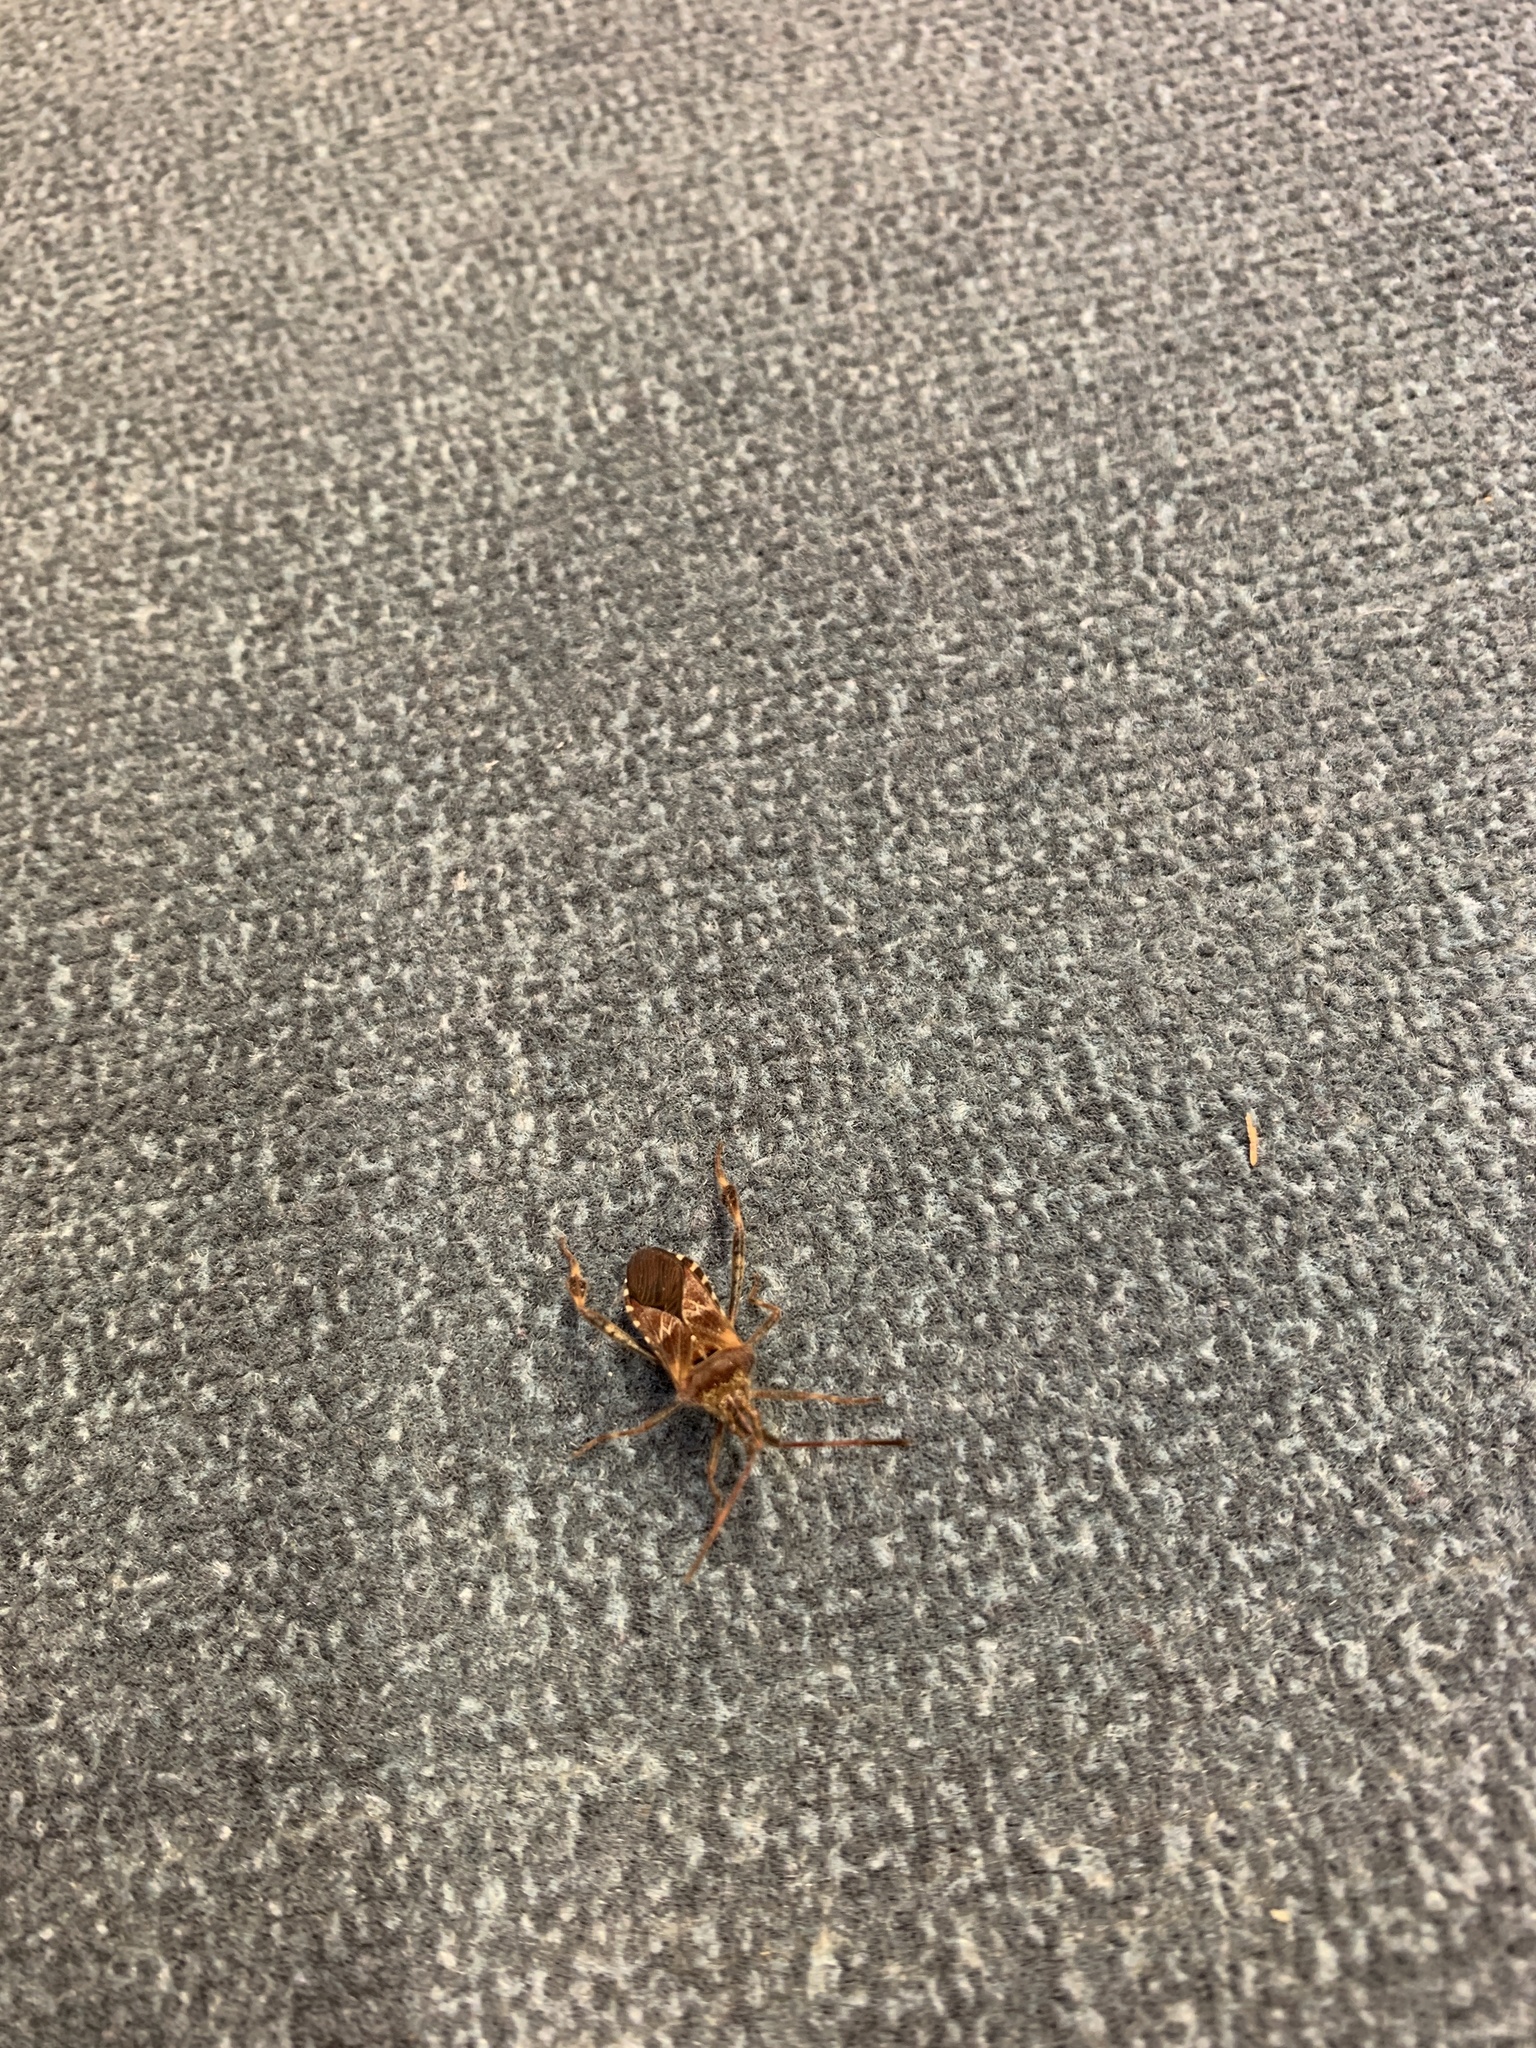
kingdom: Animalia
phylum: Arthropoda
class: Insecta
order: Hemiptera
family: Coreidae
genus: Leptoglossus
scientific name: Leptoglossus occidentalis
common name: Western conifer-seed bug
